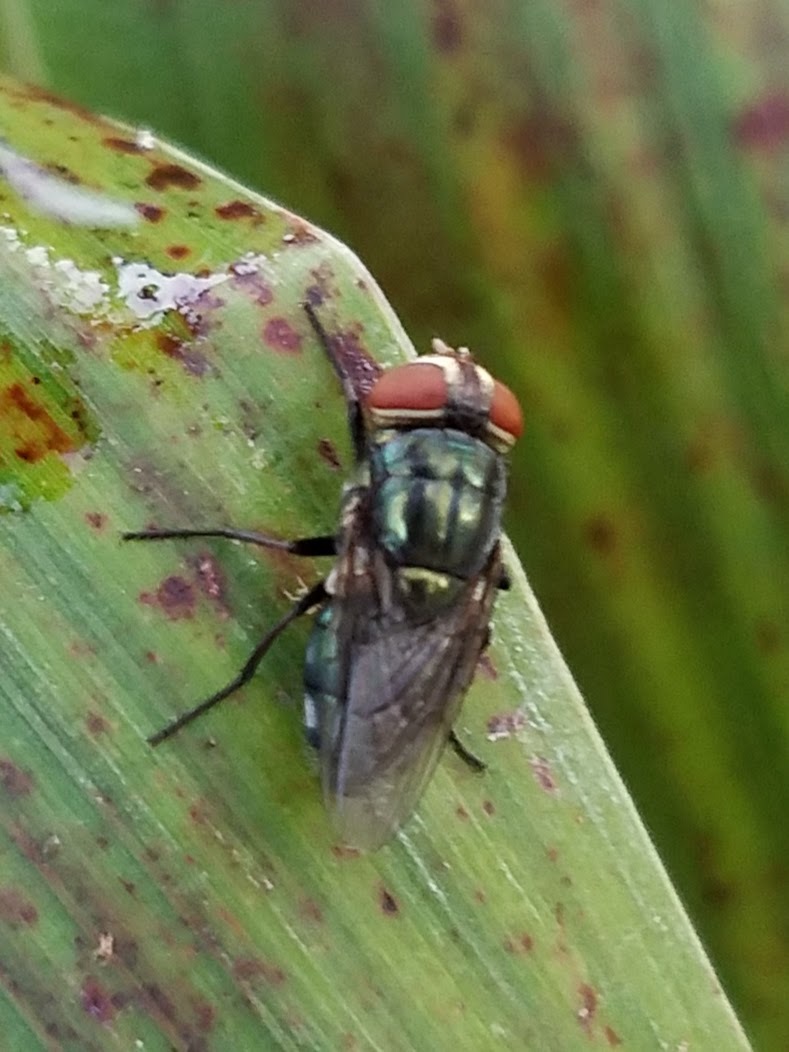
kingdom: Animalia
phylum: Arthropoda
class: Insecta
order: Diptera
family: Calliphoridae
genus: Cochliomyia
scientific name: Cochliomyia macellaria
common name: Secondary screwworm
